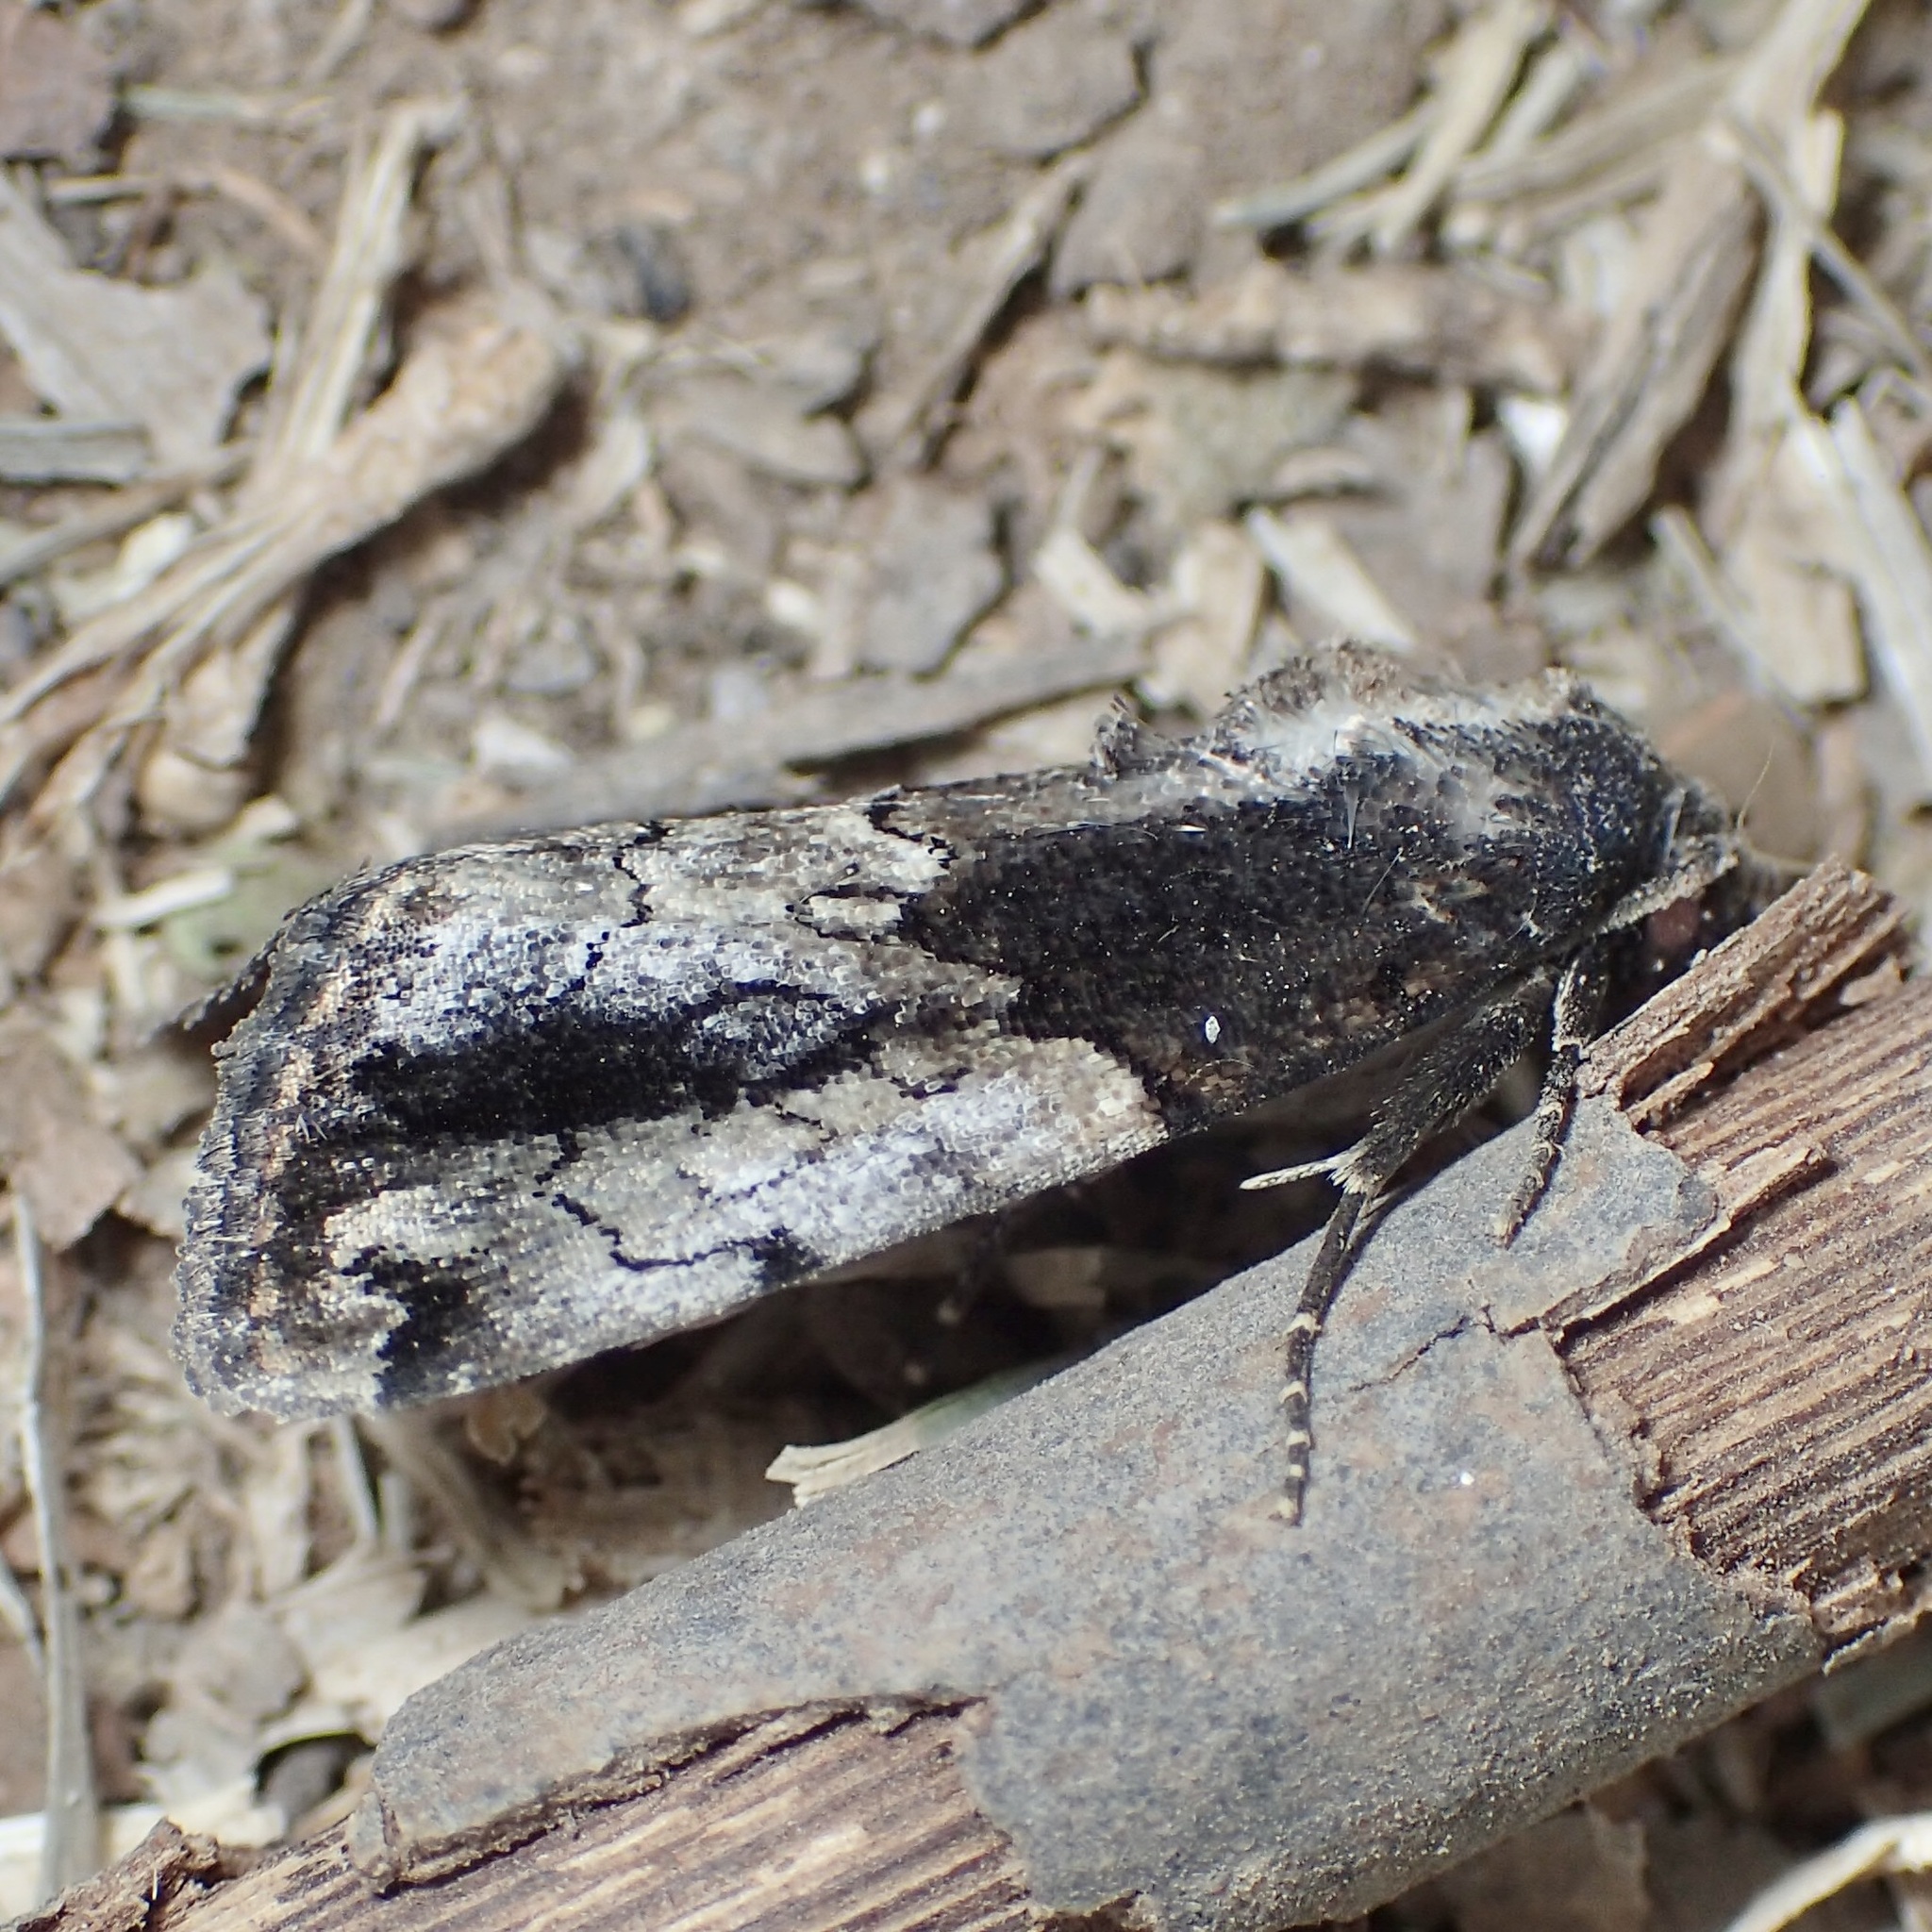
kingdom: Animalia
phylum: Arthropoda
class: Insecta
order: Lepidoptera
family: Noctuidae
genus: Bryolymnia
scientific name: Bryolymnia anthracitaria
